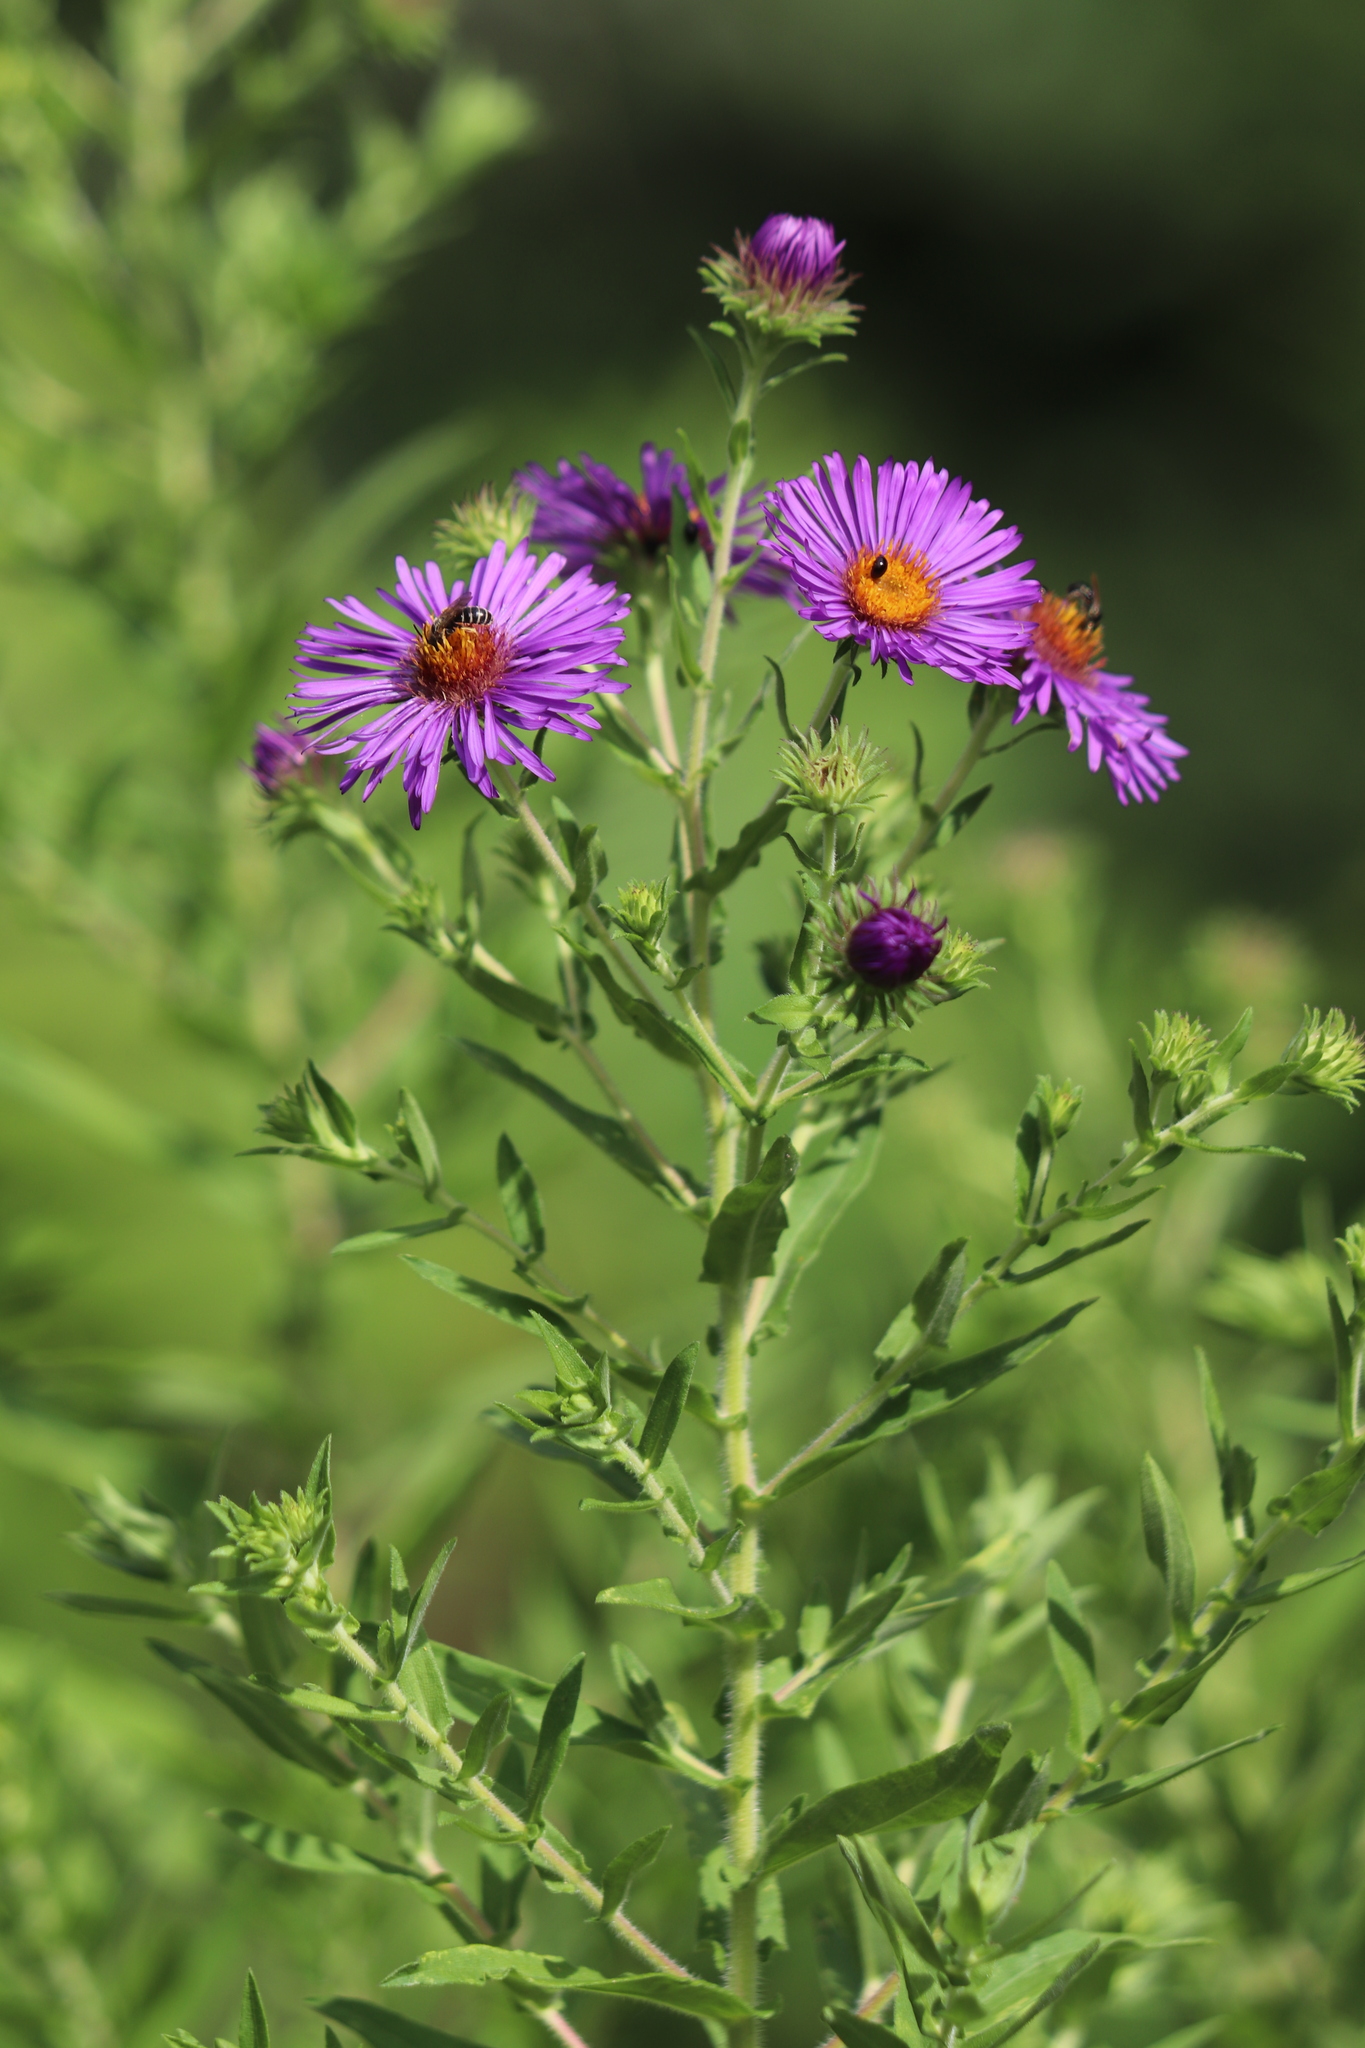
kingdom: Plantae
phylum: Tracheophyta
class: Magnoliopsida
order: Asterales
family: Asteraceae
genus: Symphyotrichum
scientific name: Symphyotrichum novae-angliae
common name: Michaelmas daisy
